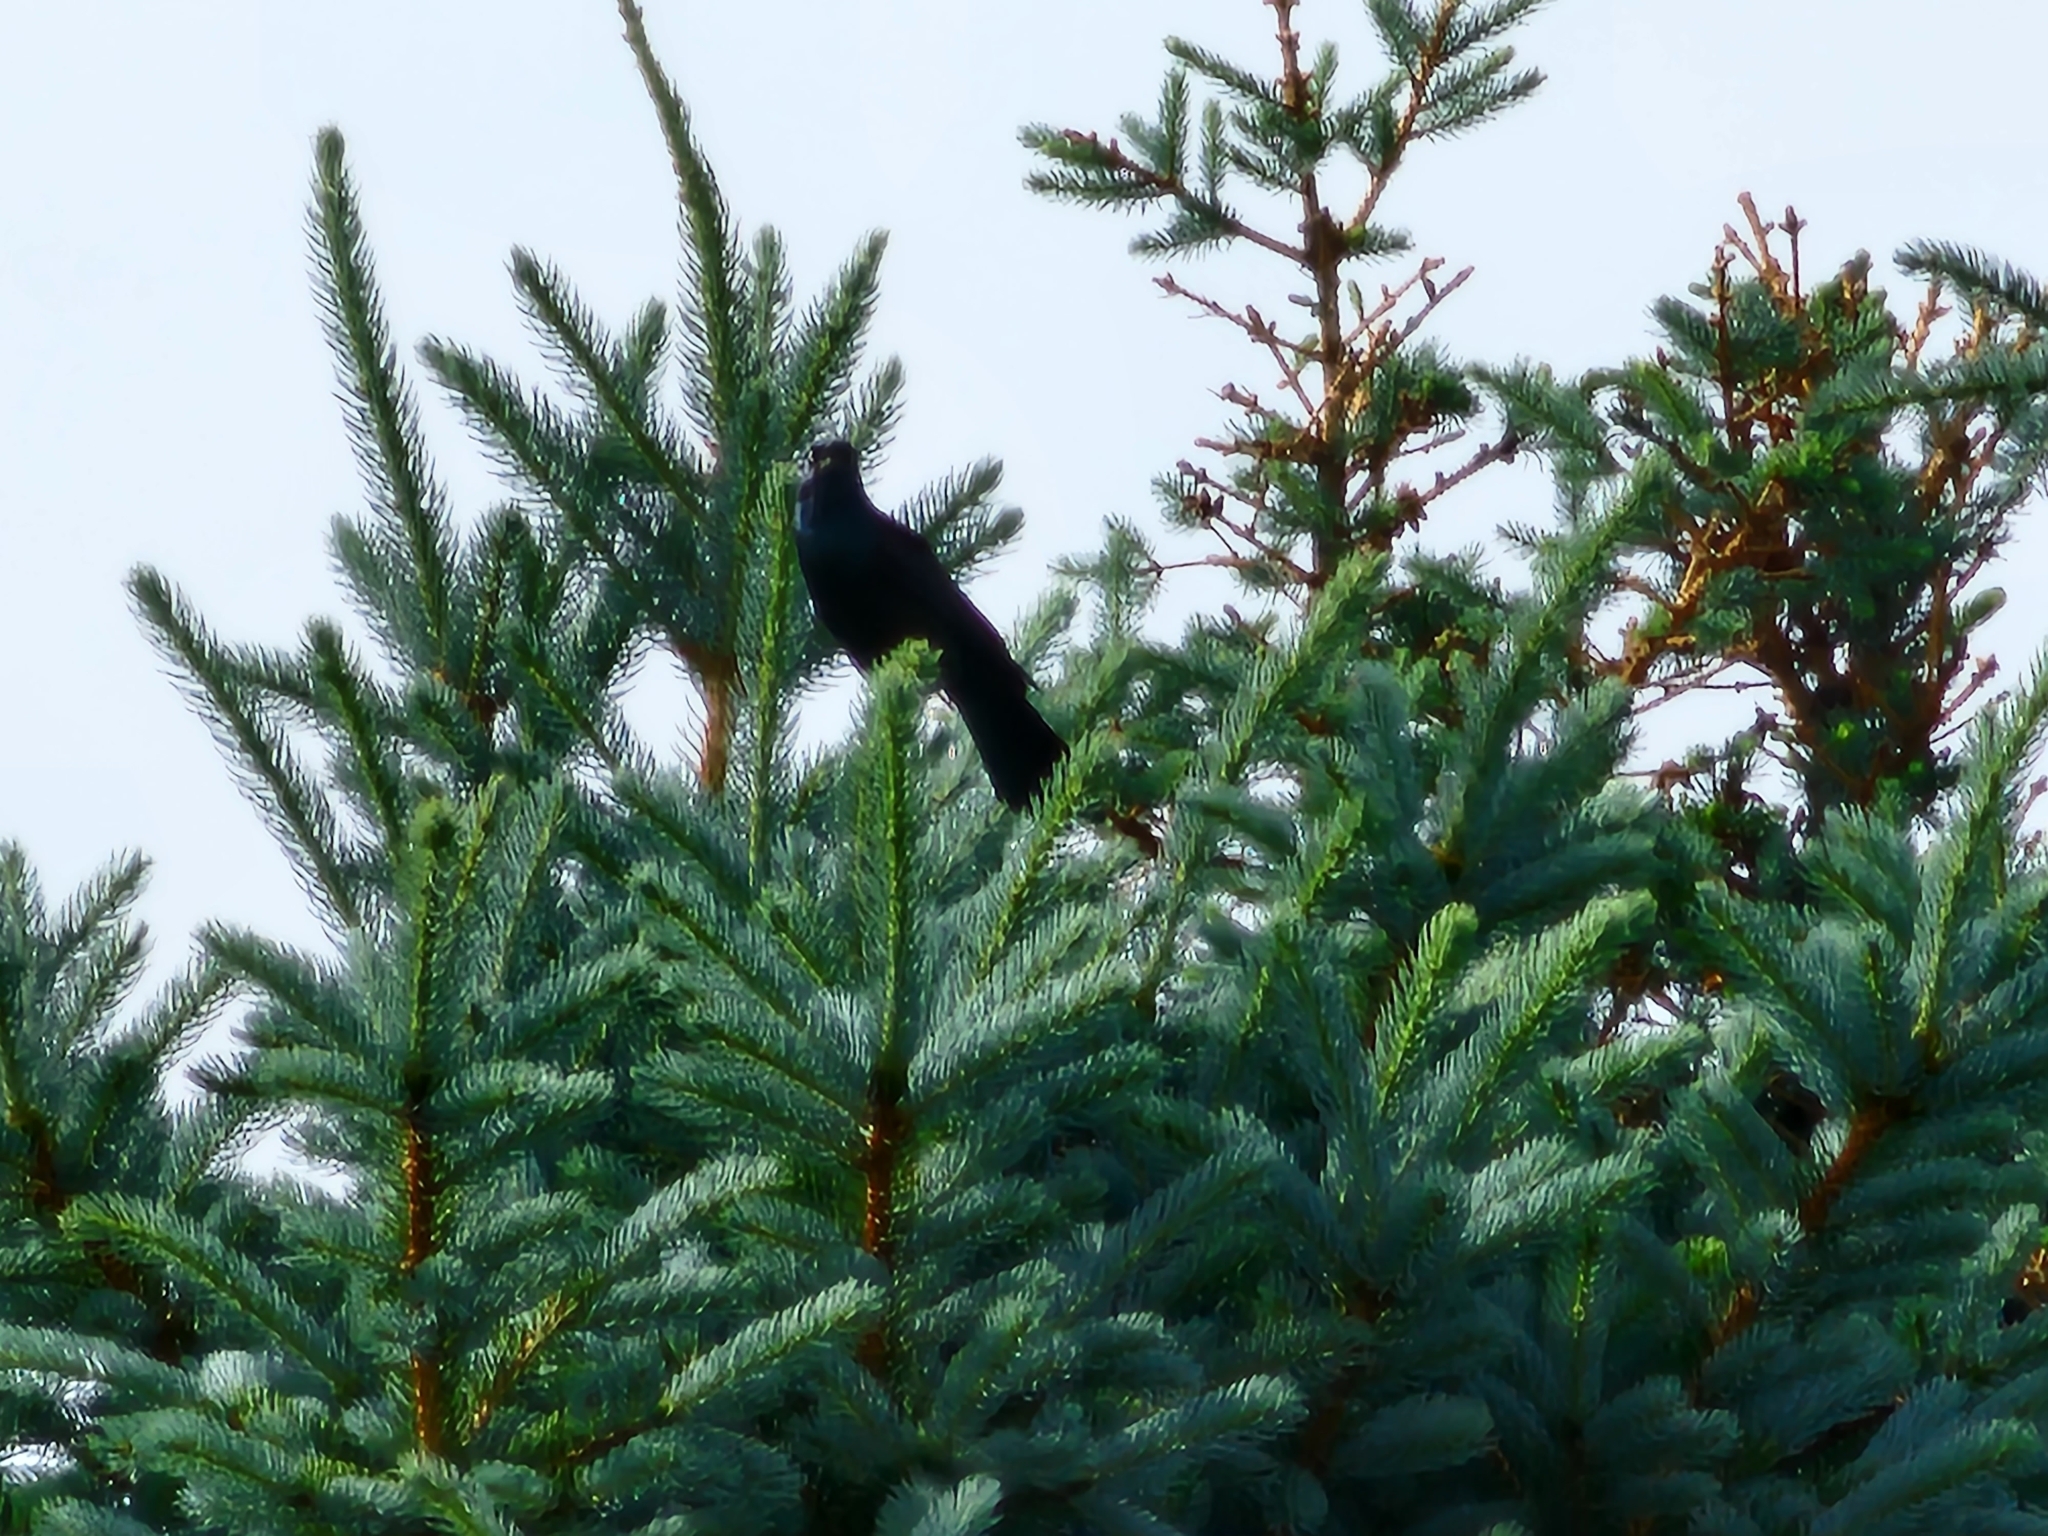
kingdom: Animalia
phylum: Chordata
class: Aves
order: Passeriformes
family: Icteridae
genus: Quiscalus
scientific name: Quiscalus quiscula
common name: Common grackle
